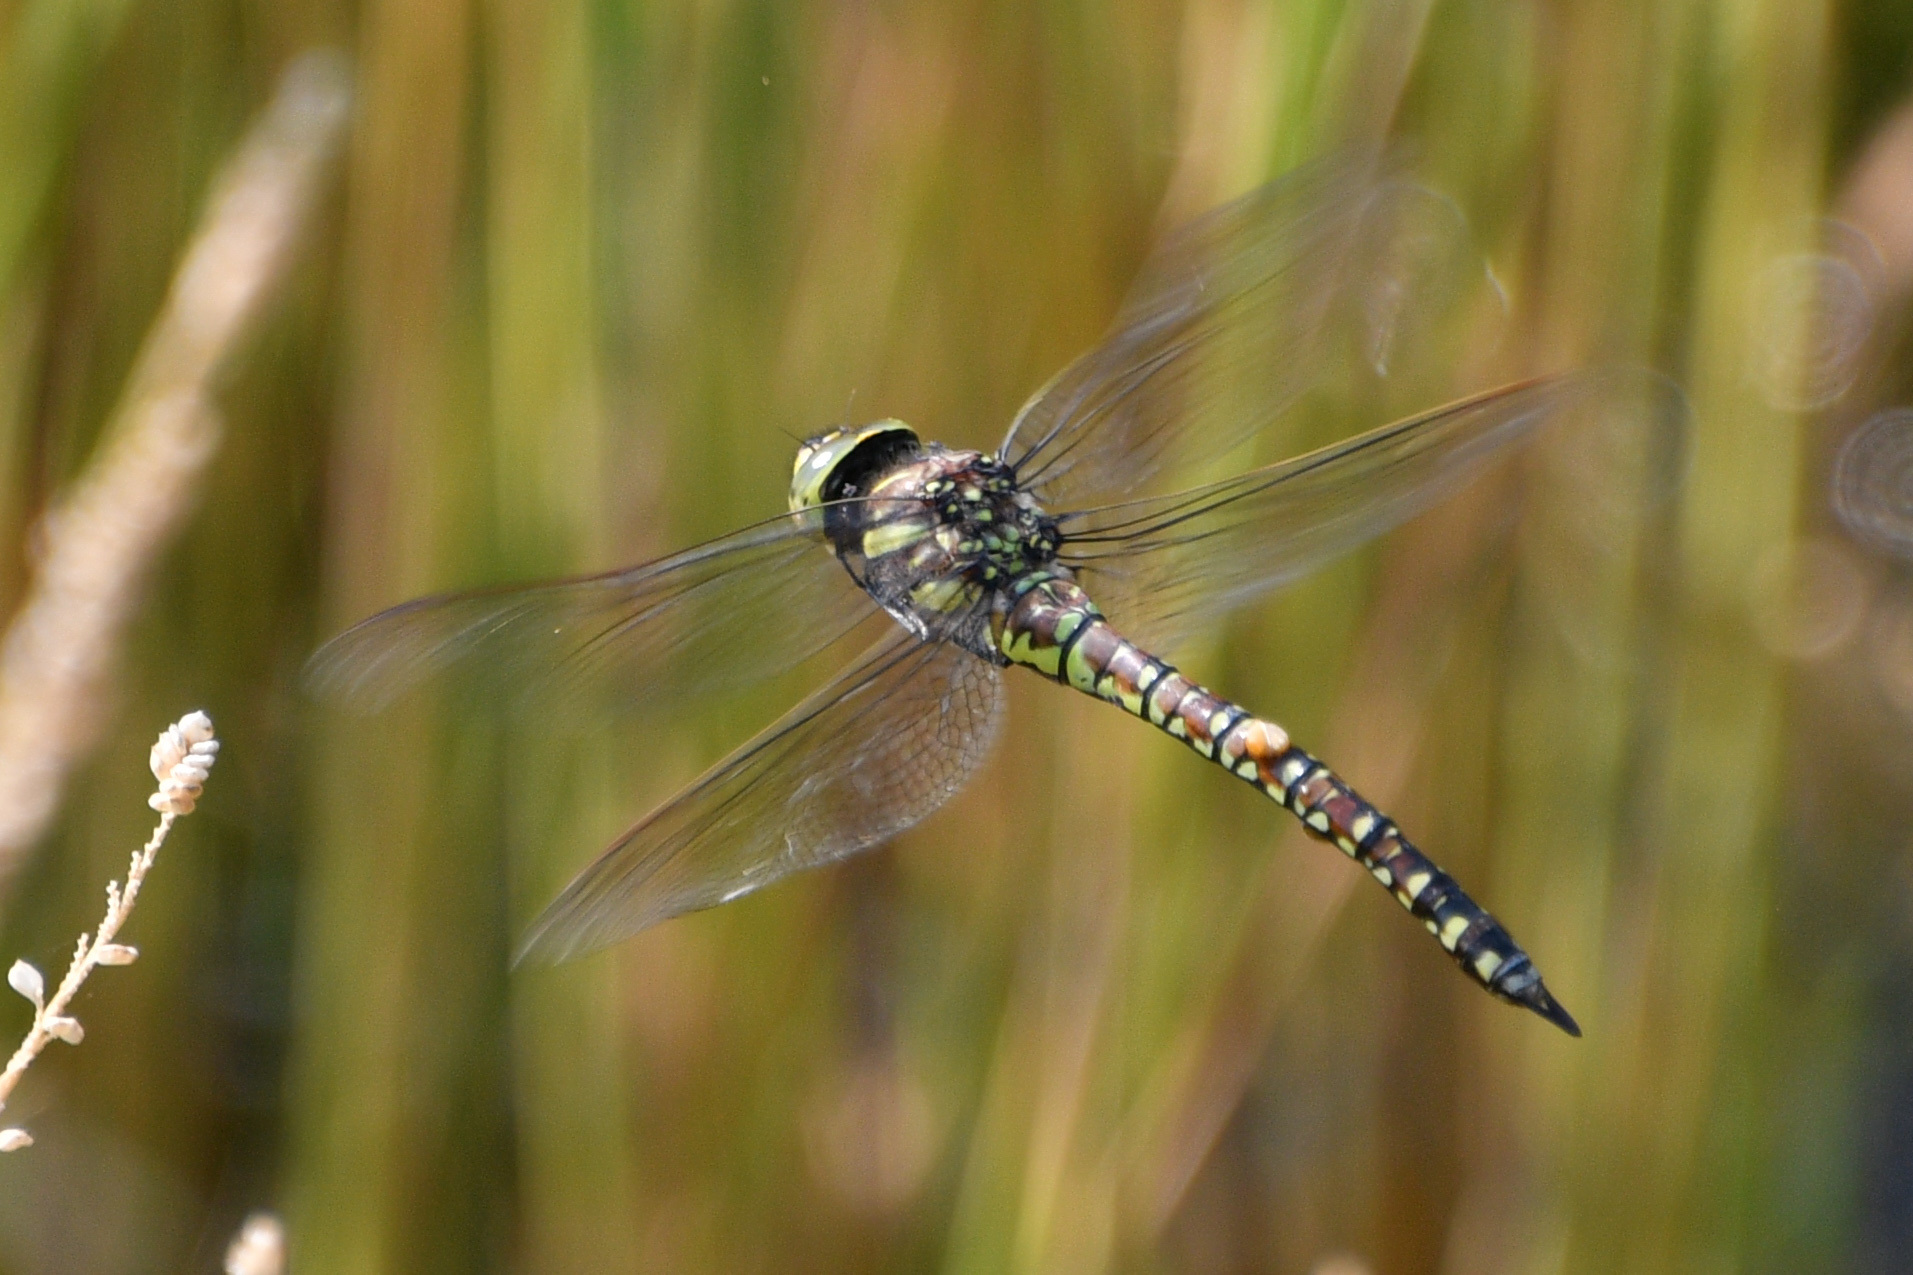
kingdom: Animalia
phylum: Arthropoda
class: Insecta
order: Odonata
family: Aeshnidae
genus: Aeshna
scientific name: Aeshna juncea
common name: Moorland hawker
